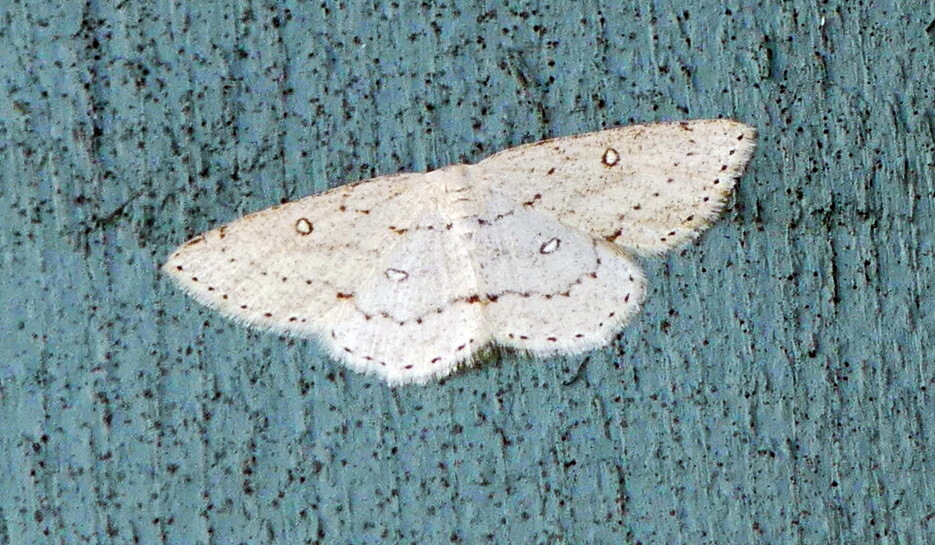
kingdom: Animalia
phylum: Arthropoda
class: Insecta
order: Lepidoptera
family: Geometridae
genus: Cyclophora
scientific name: Cyclophora pendulinaria
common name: Sweet fern geometer
